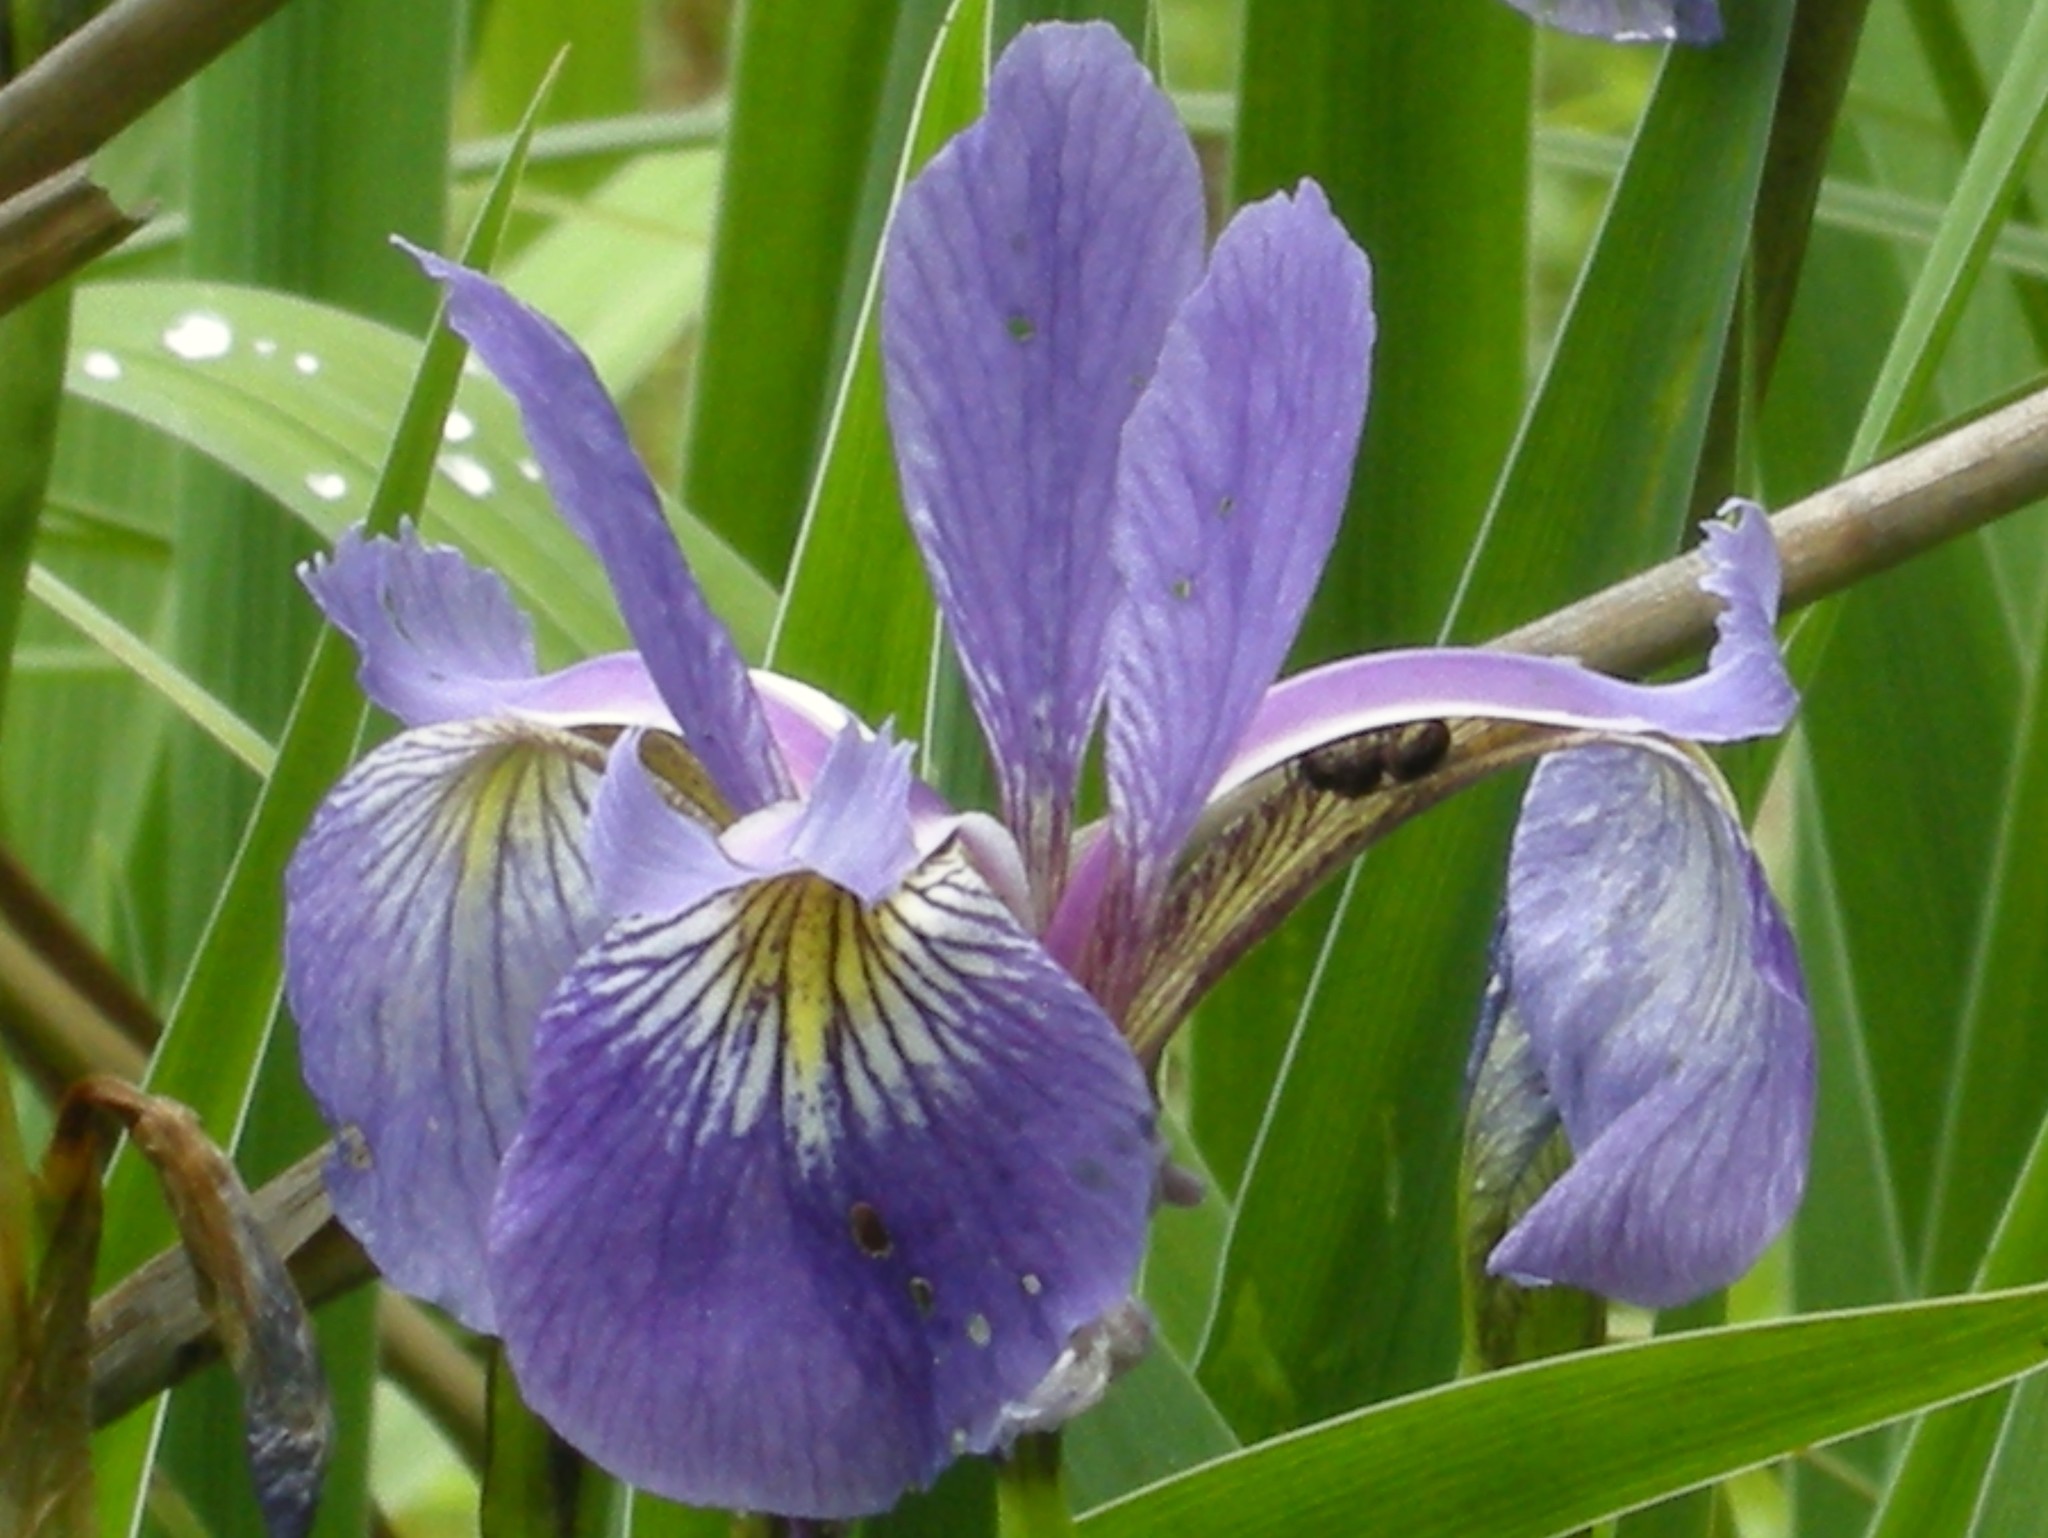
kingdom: Plantae
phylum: Tracheophyta
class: Liliopsida
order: Asparagales
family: Iridaceae
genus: Iris
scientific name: Iris versicolor
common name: Purple iris
